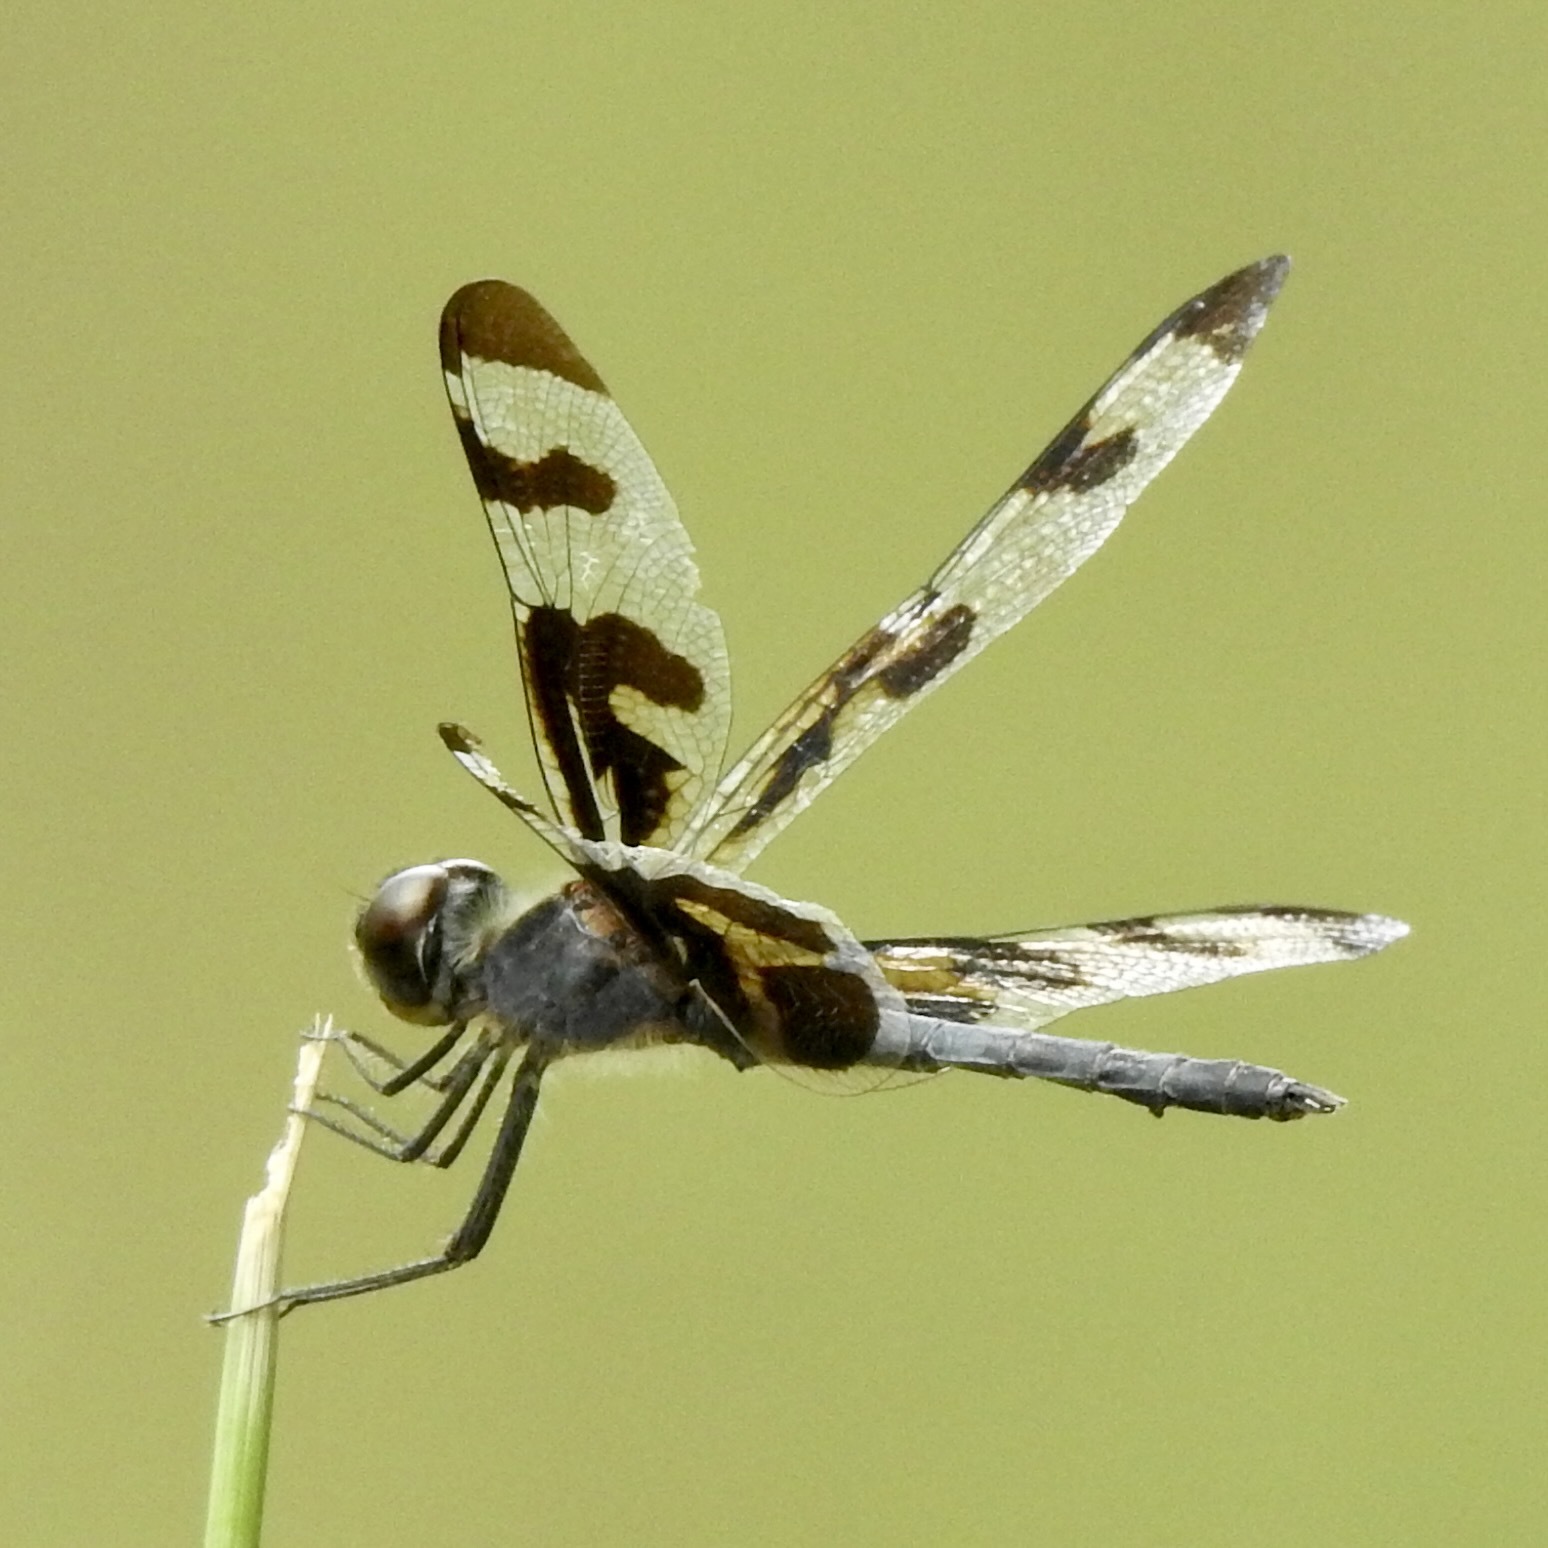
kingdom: Animalia
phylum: Arthropoda
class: Insecta
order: Odonata
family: Libellulidae
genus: Celithemis
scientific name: Celithemis fasciata
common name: Banded pennant
